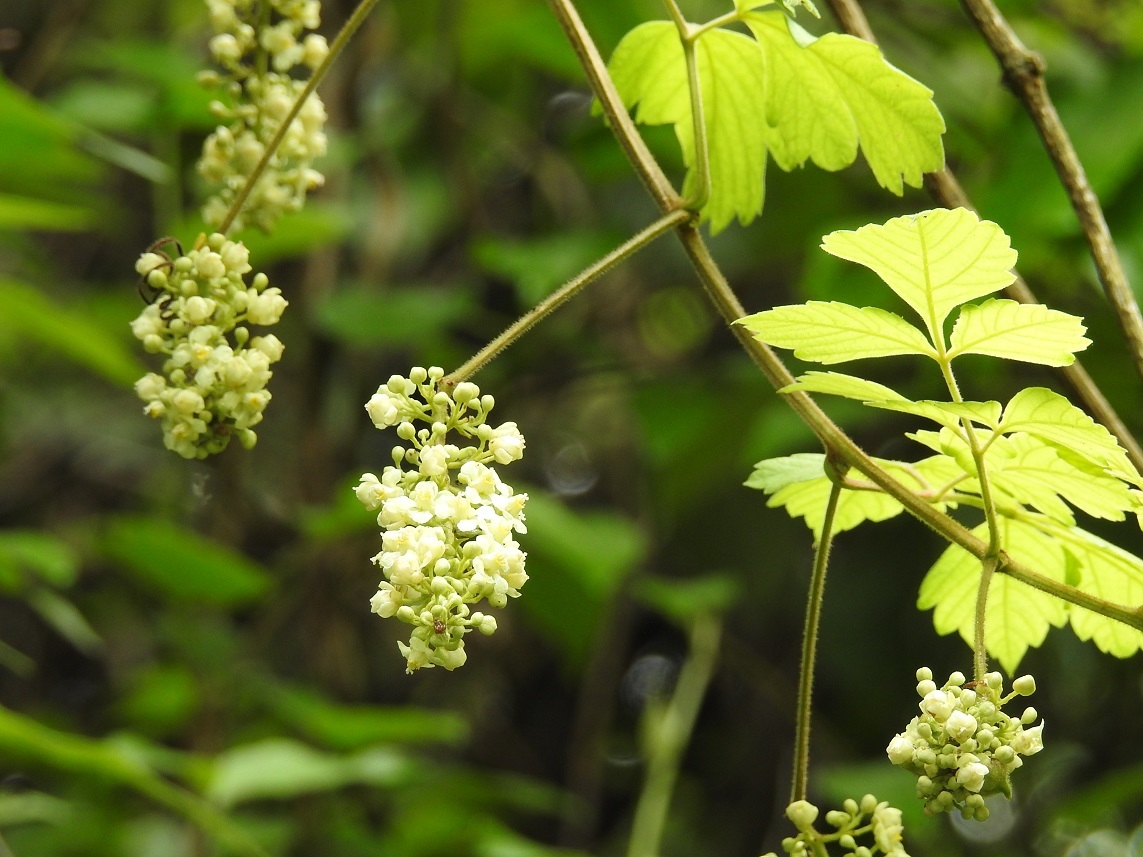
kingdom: Plantae
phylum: Tracheophyta
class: Magnoliopsida
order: Sapindales
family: Sapindaceae
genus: Paullinia
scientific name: Paullinia costata
